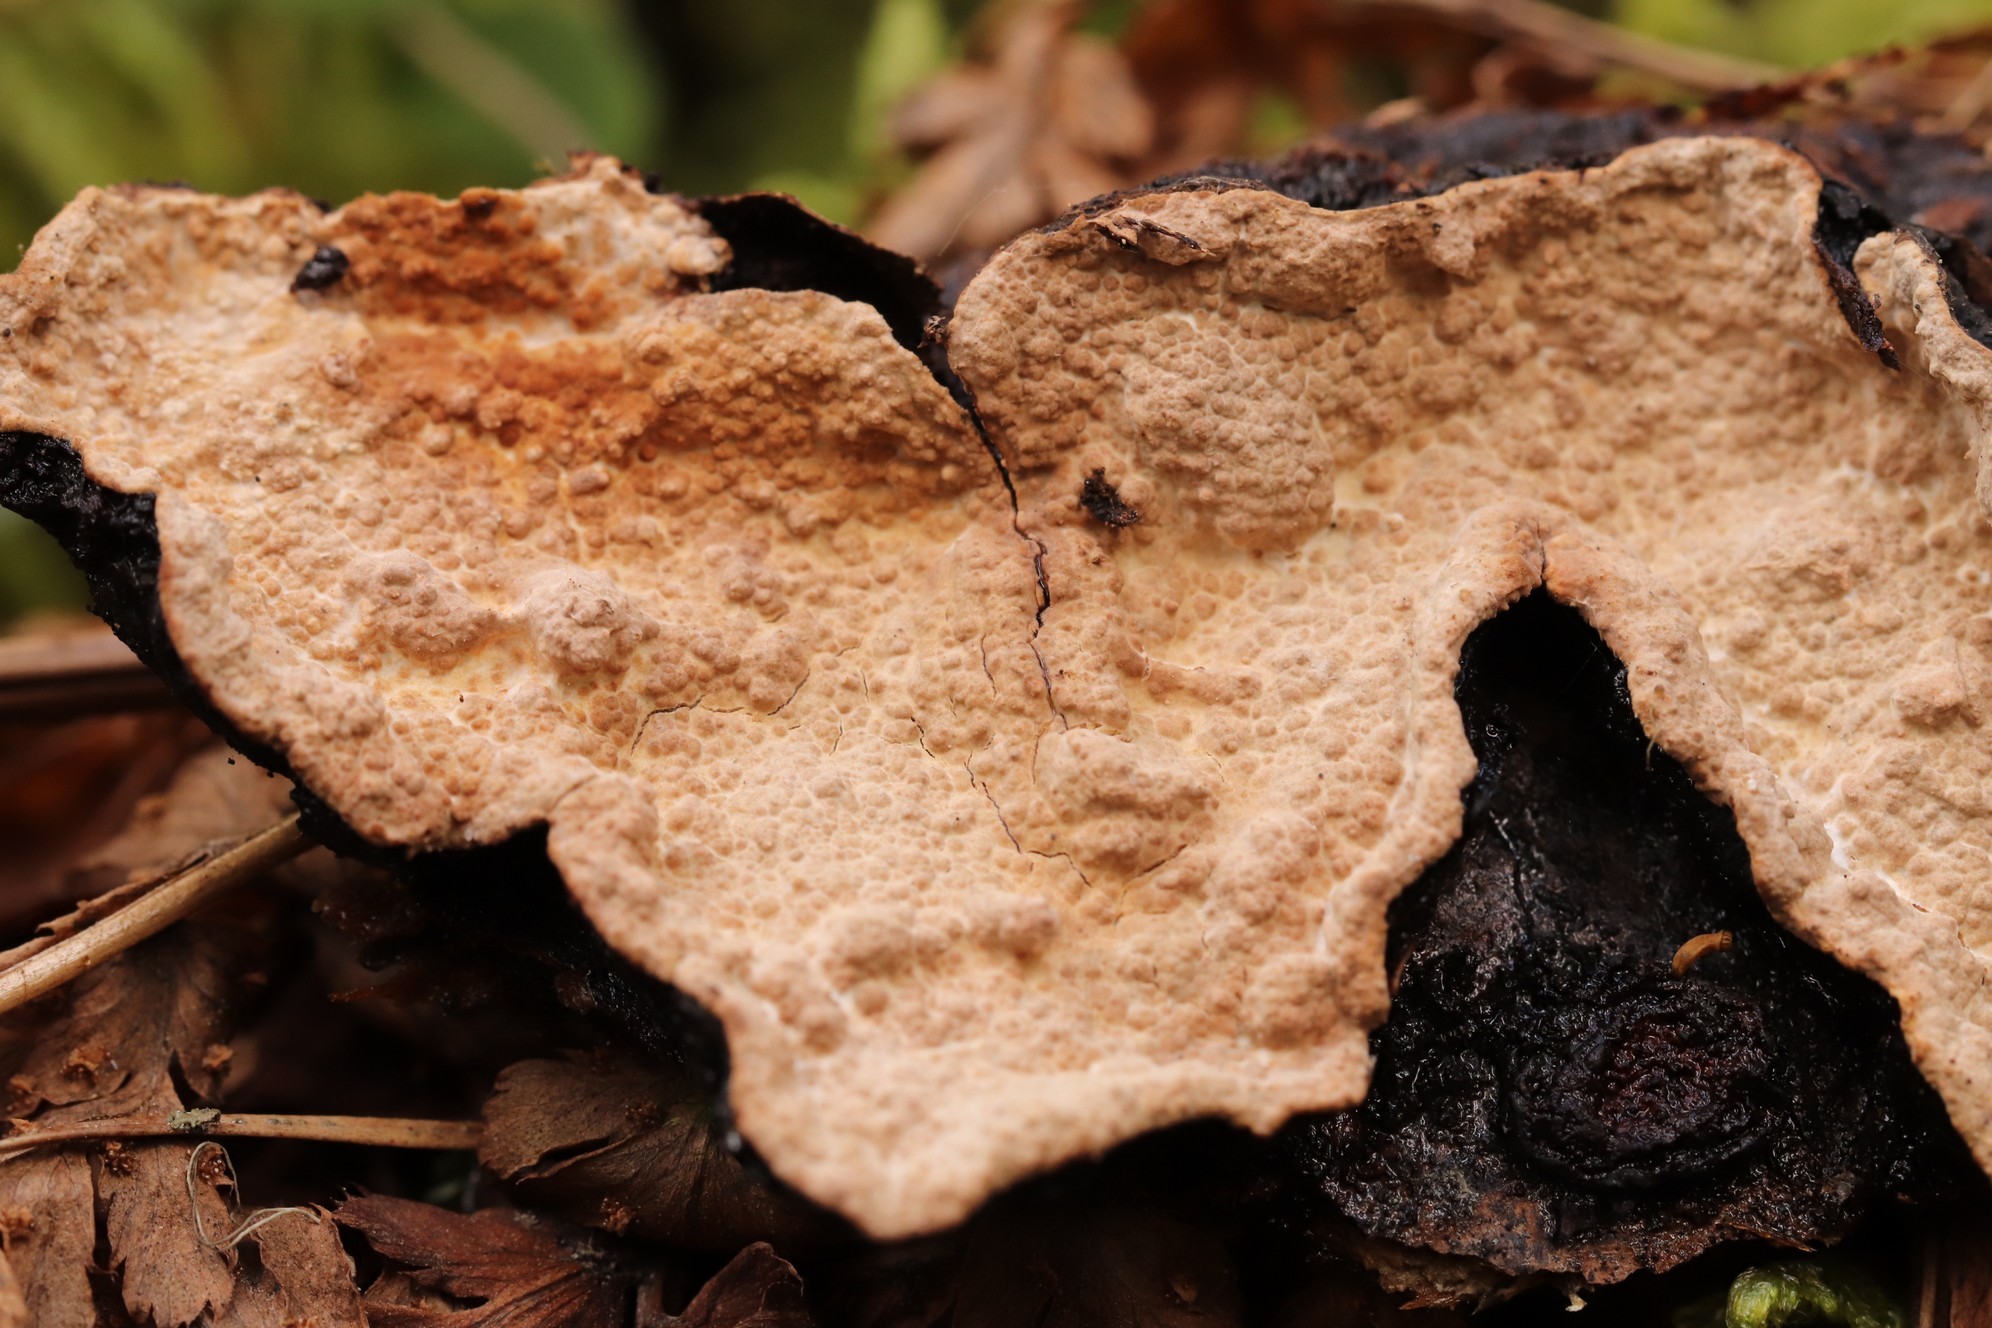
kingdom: Fungi
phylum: Basidiomycota
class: Agaricomycetes
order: Russulales
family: Bondarzewiaceae
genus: Laurilia
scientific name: Laurilia sulcata
